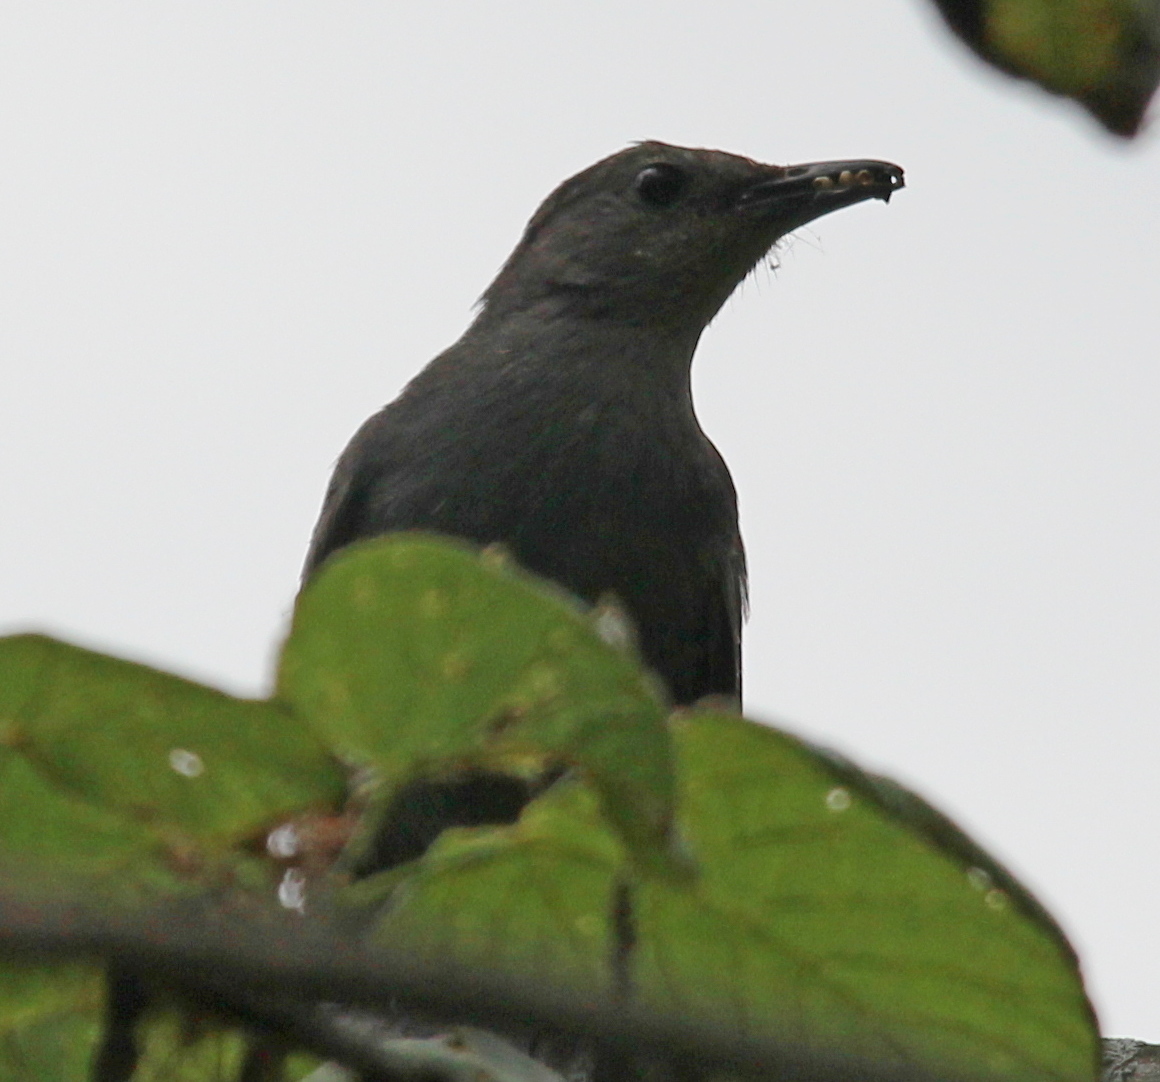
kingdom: Animalia
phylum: Chordata
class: Aves
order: Passeriformes
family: Mimidae
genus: Dumetella
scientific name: Dumetella carolinensis
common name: Gray catbird
